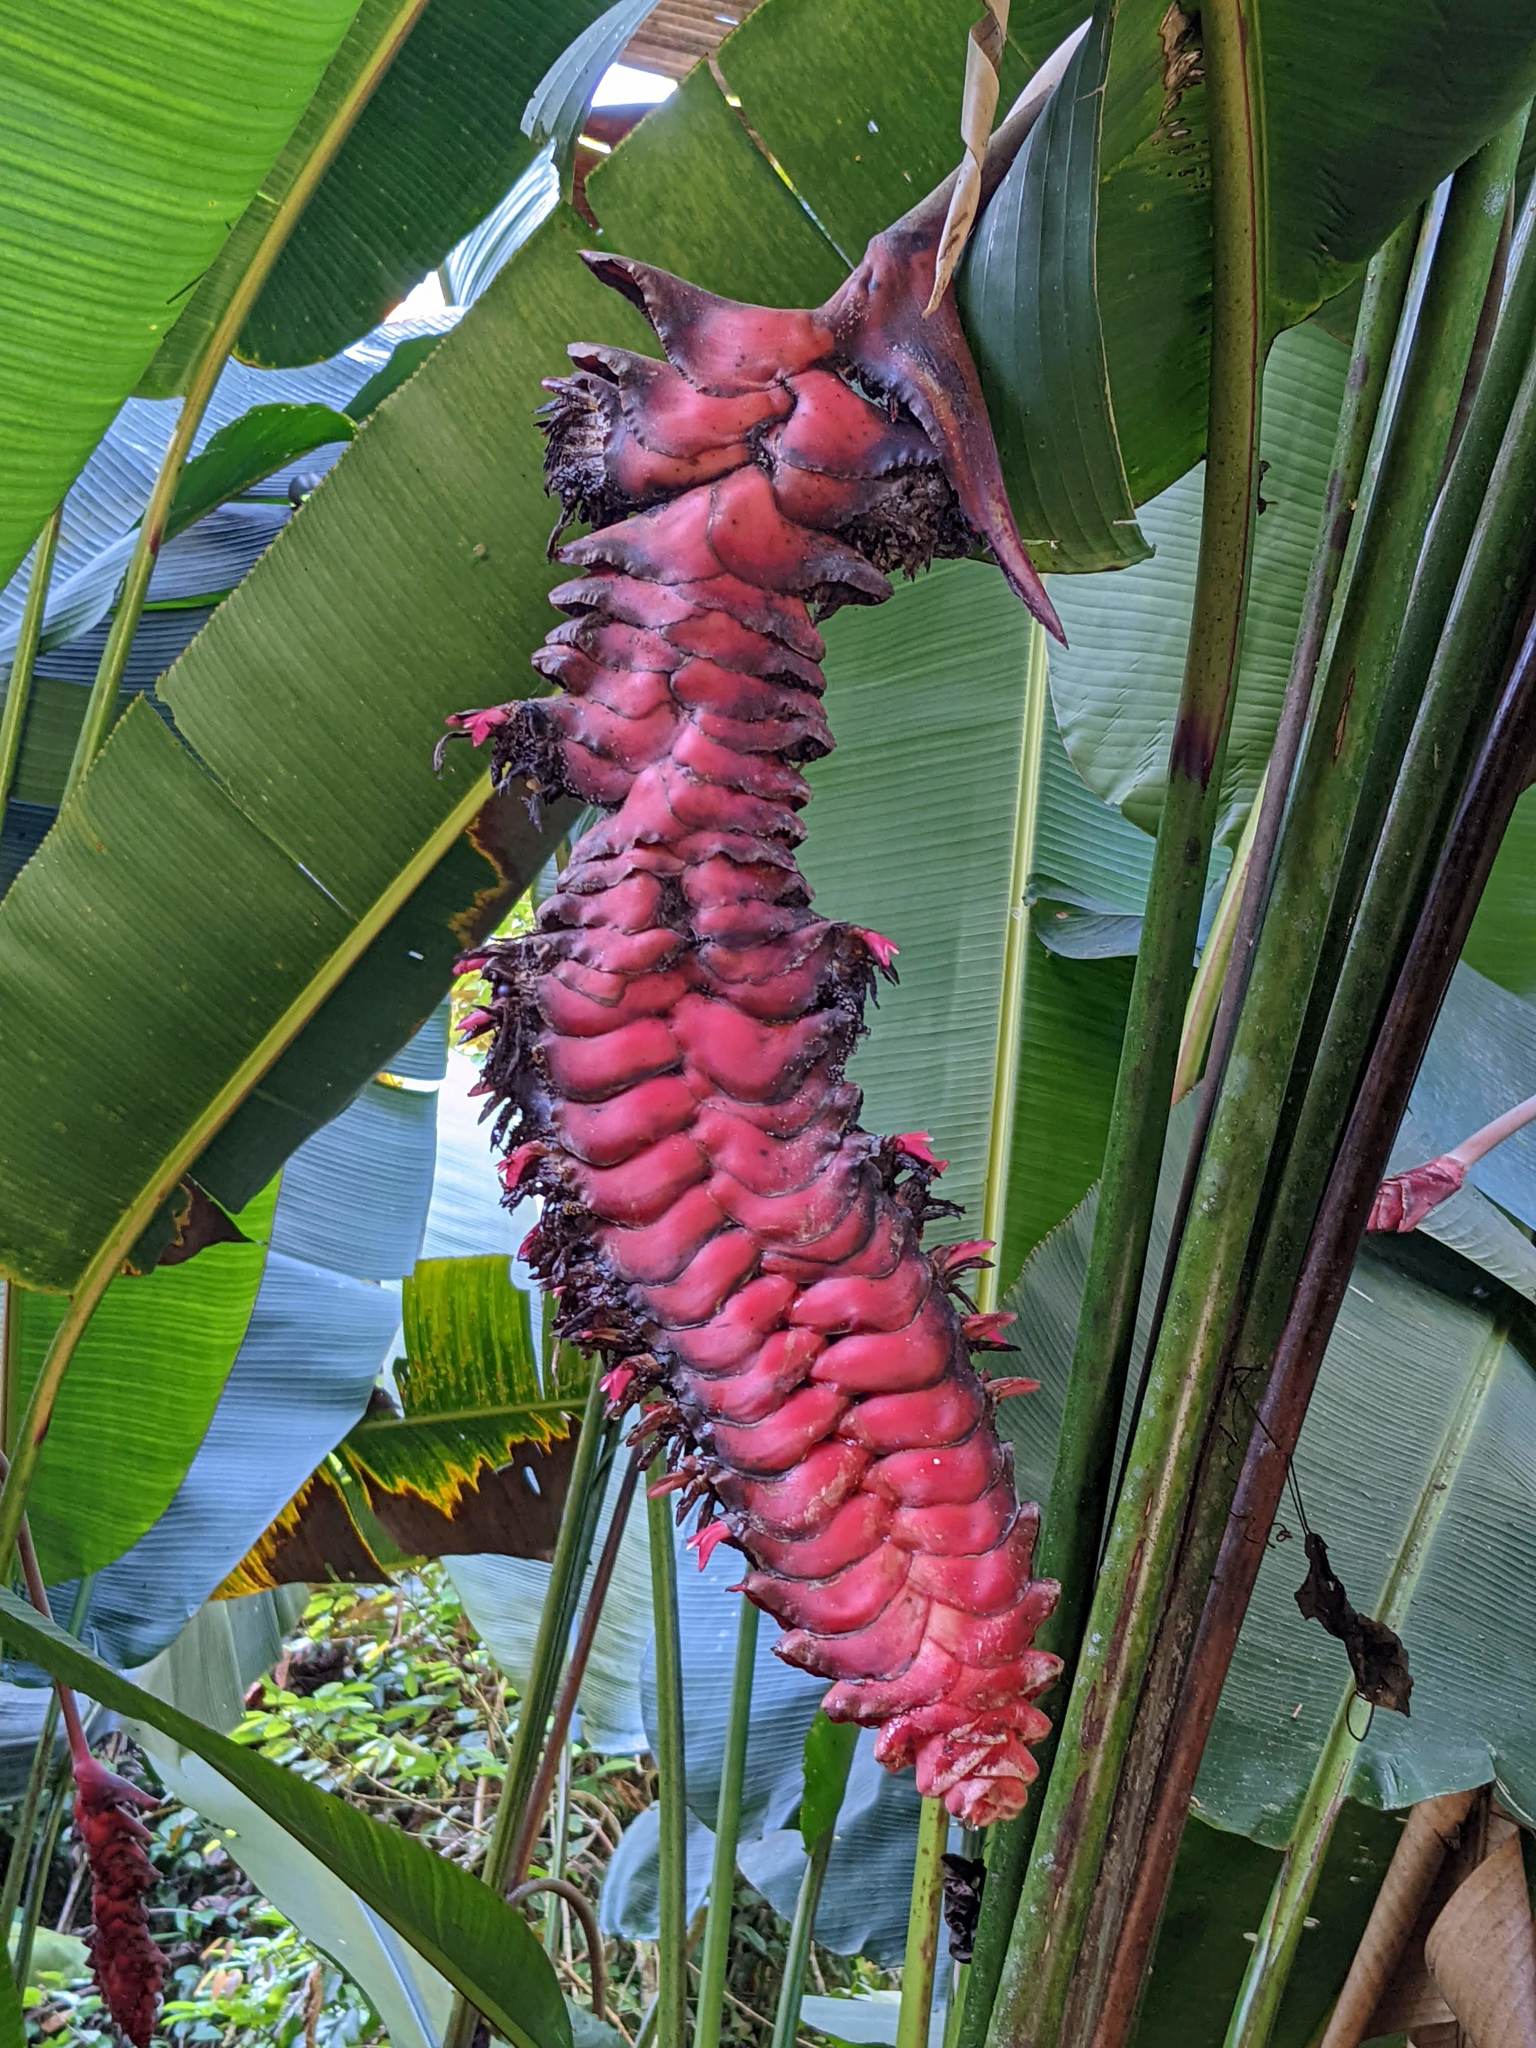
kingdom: Plantae
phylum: Tracheophyta
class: Liliopsida
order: Zingiberales
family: Heliconiaceae
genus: Heliconia
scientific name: Heliconia mariae
